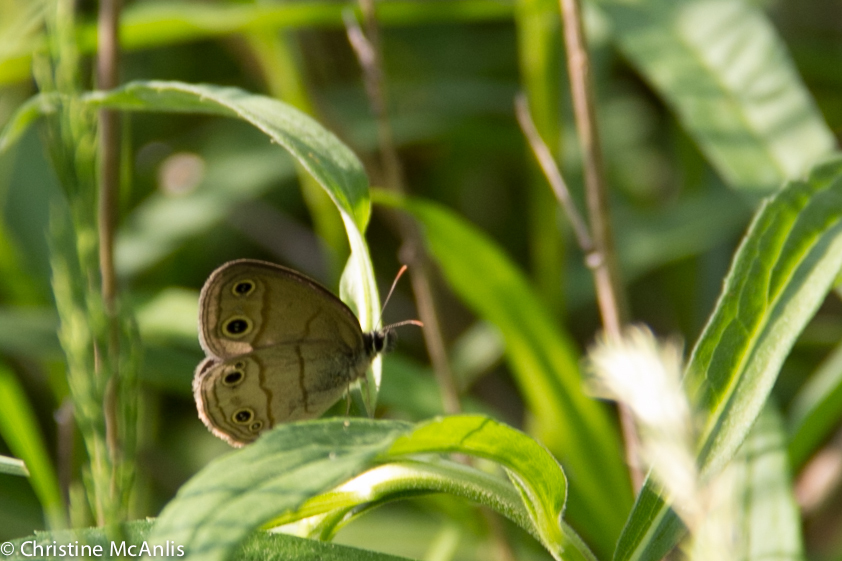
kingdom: Animalia
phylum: Arthropoda
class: Insecta
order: Lepidoptera
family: Nymphalidae
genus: Euptychia
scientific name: Euptychia cymela
